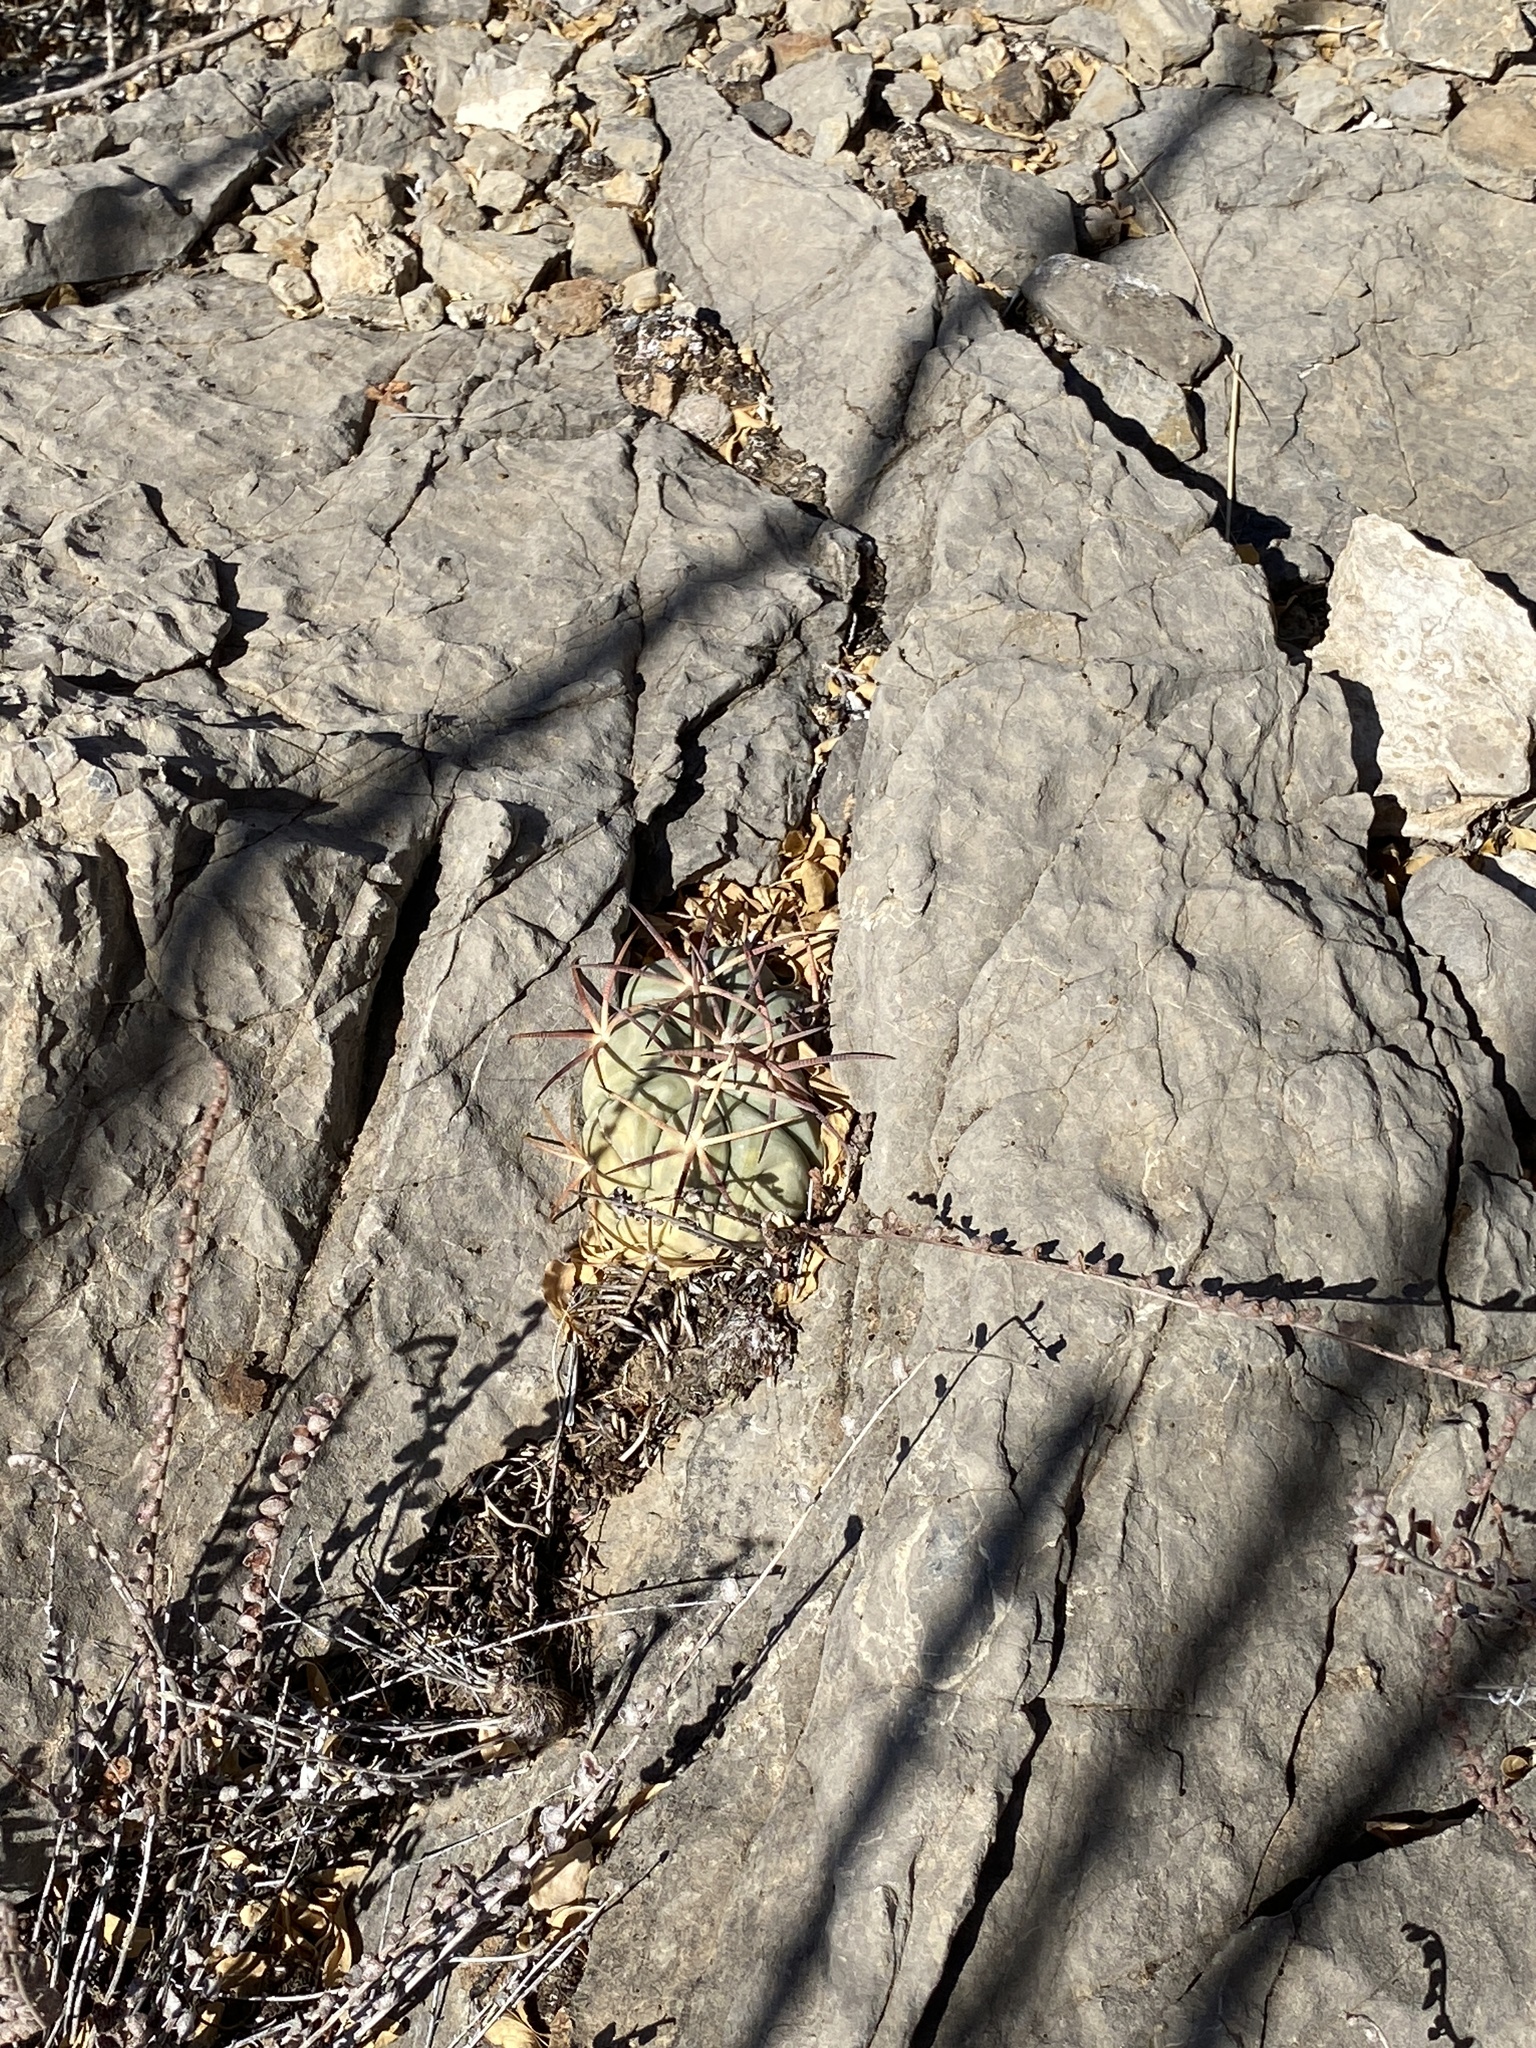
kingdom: Plantae
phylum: Tracheophyta
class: Magnoliopsida
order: Caryophyllales
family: Cactaceae
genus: Echinocactus
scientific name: Echinocactus horizonthalonius
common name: Devilshead
